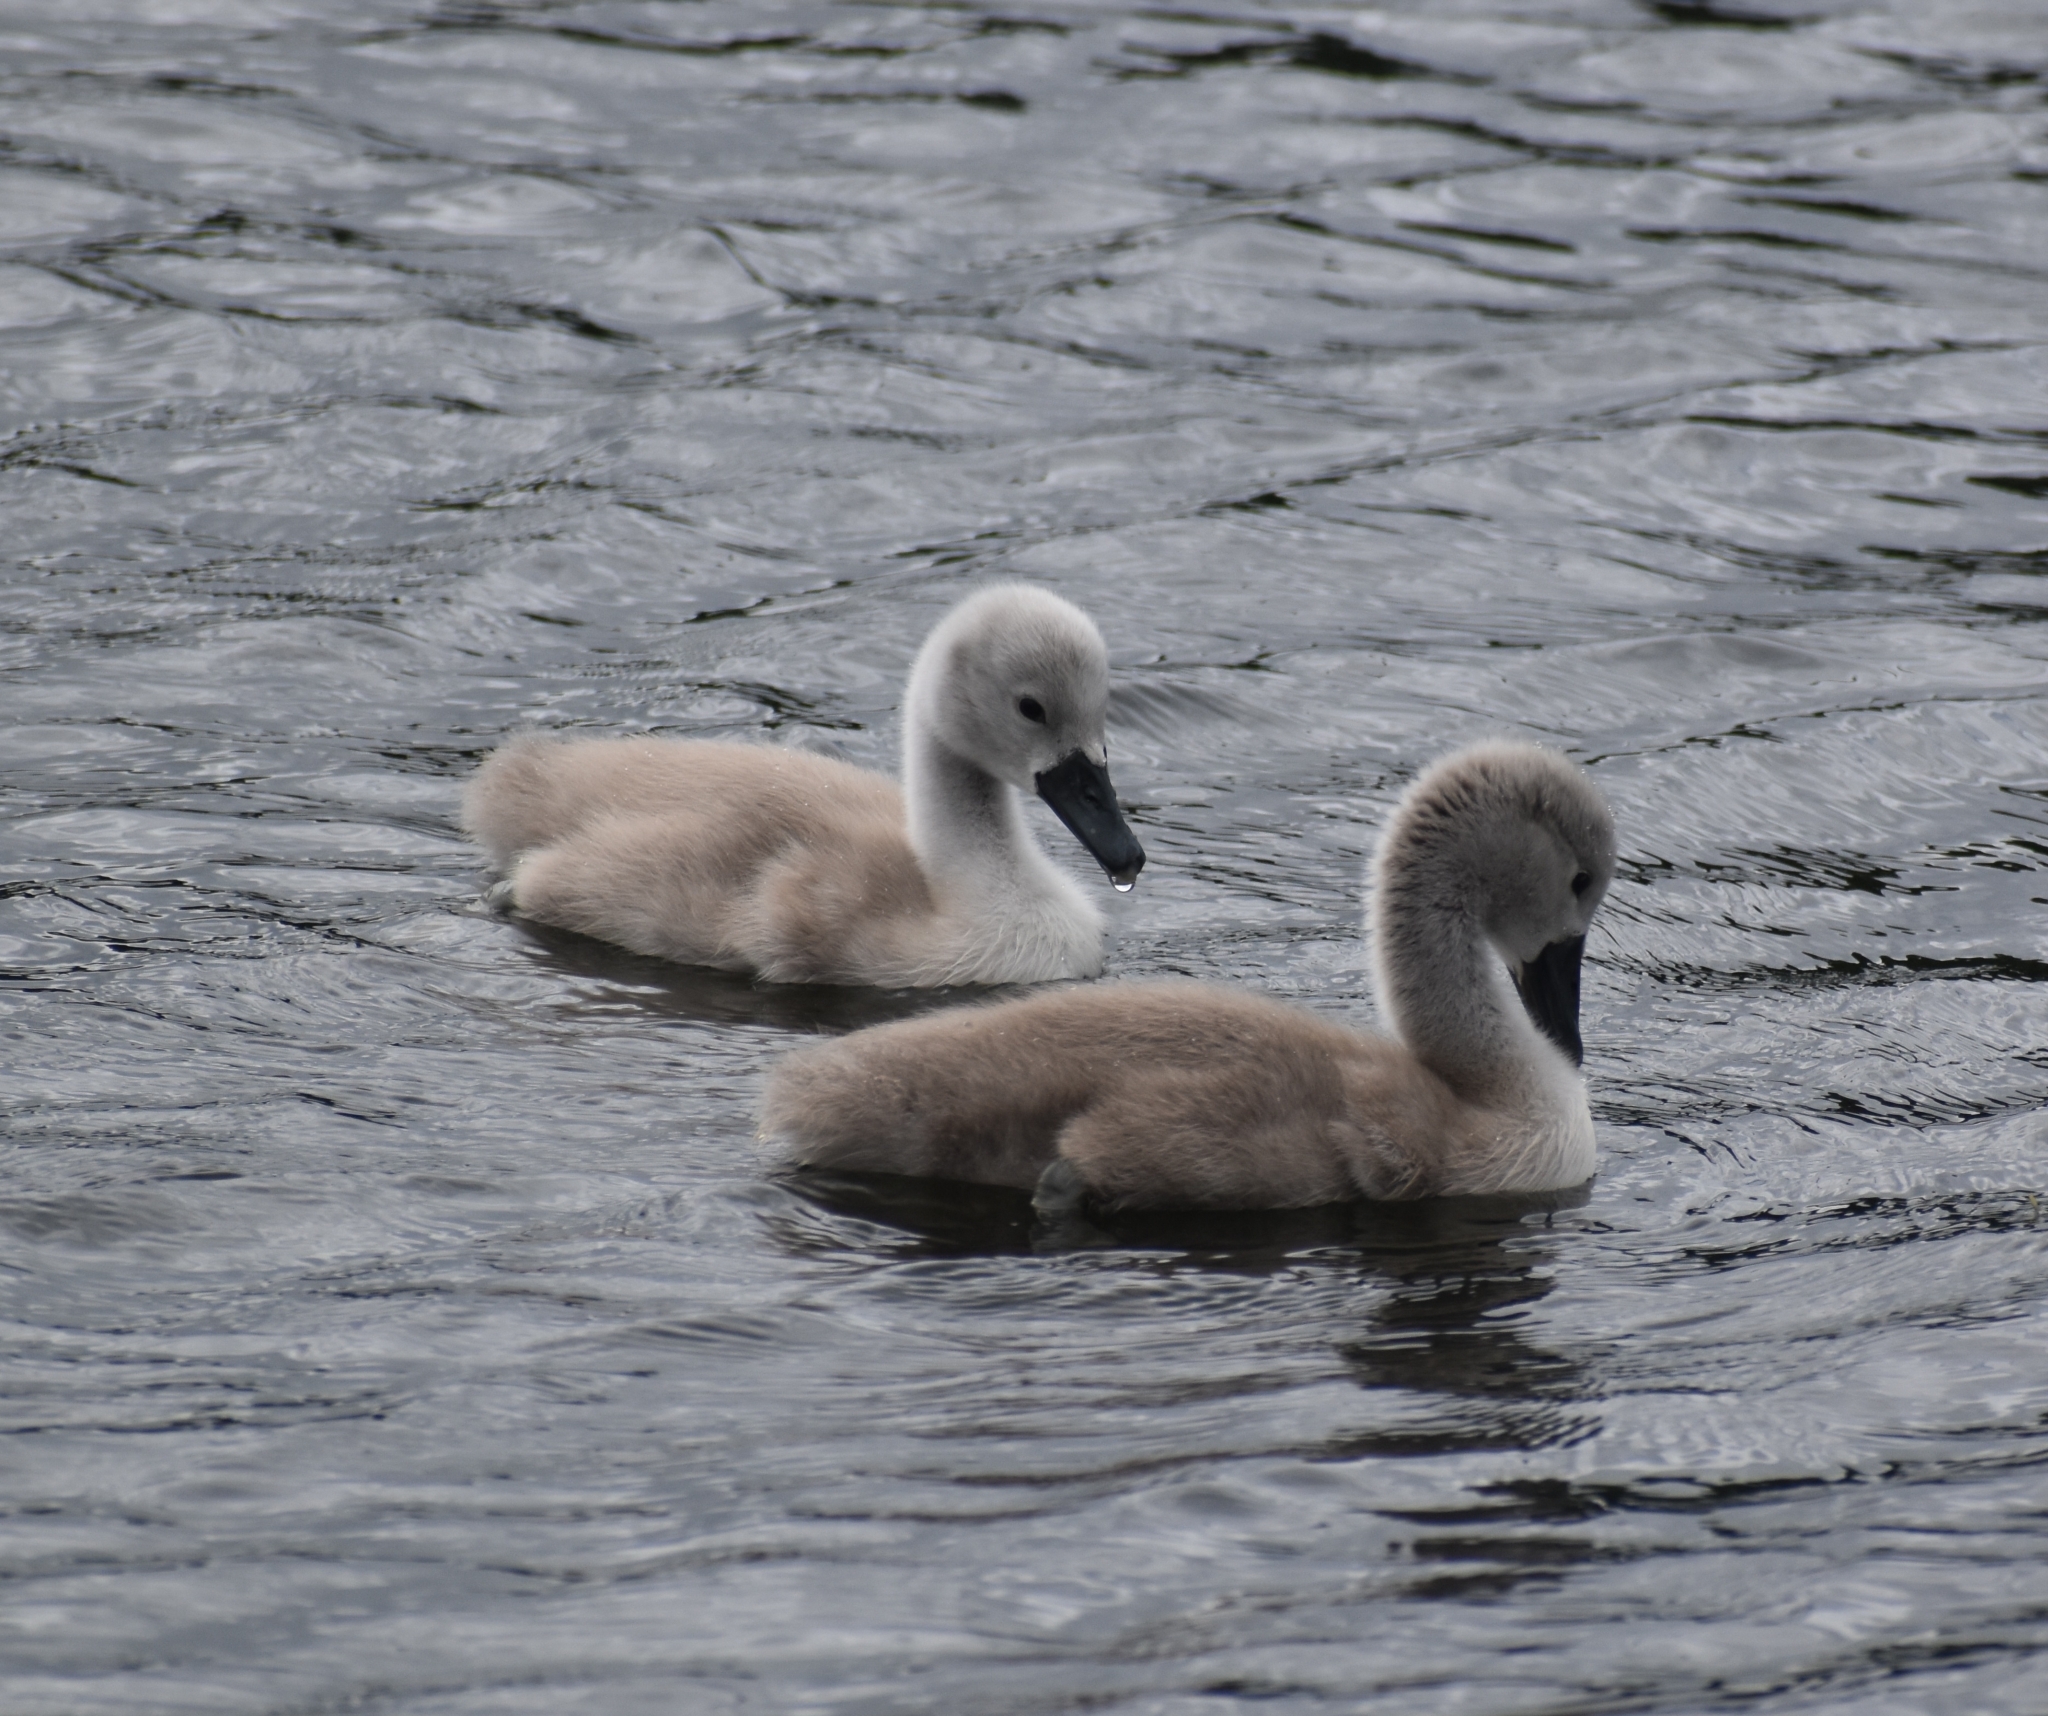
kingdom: Animalia
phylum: Chordata
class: Aves
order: Anseriformes
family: Anatidae
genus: Cygnus
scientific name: Cygnus olor
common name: Mute swan
